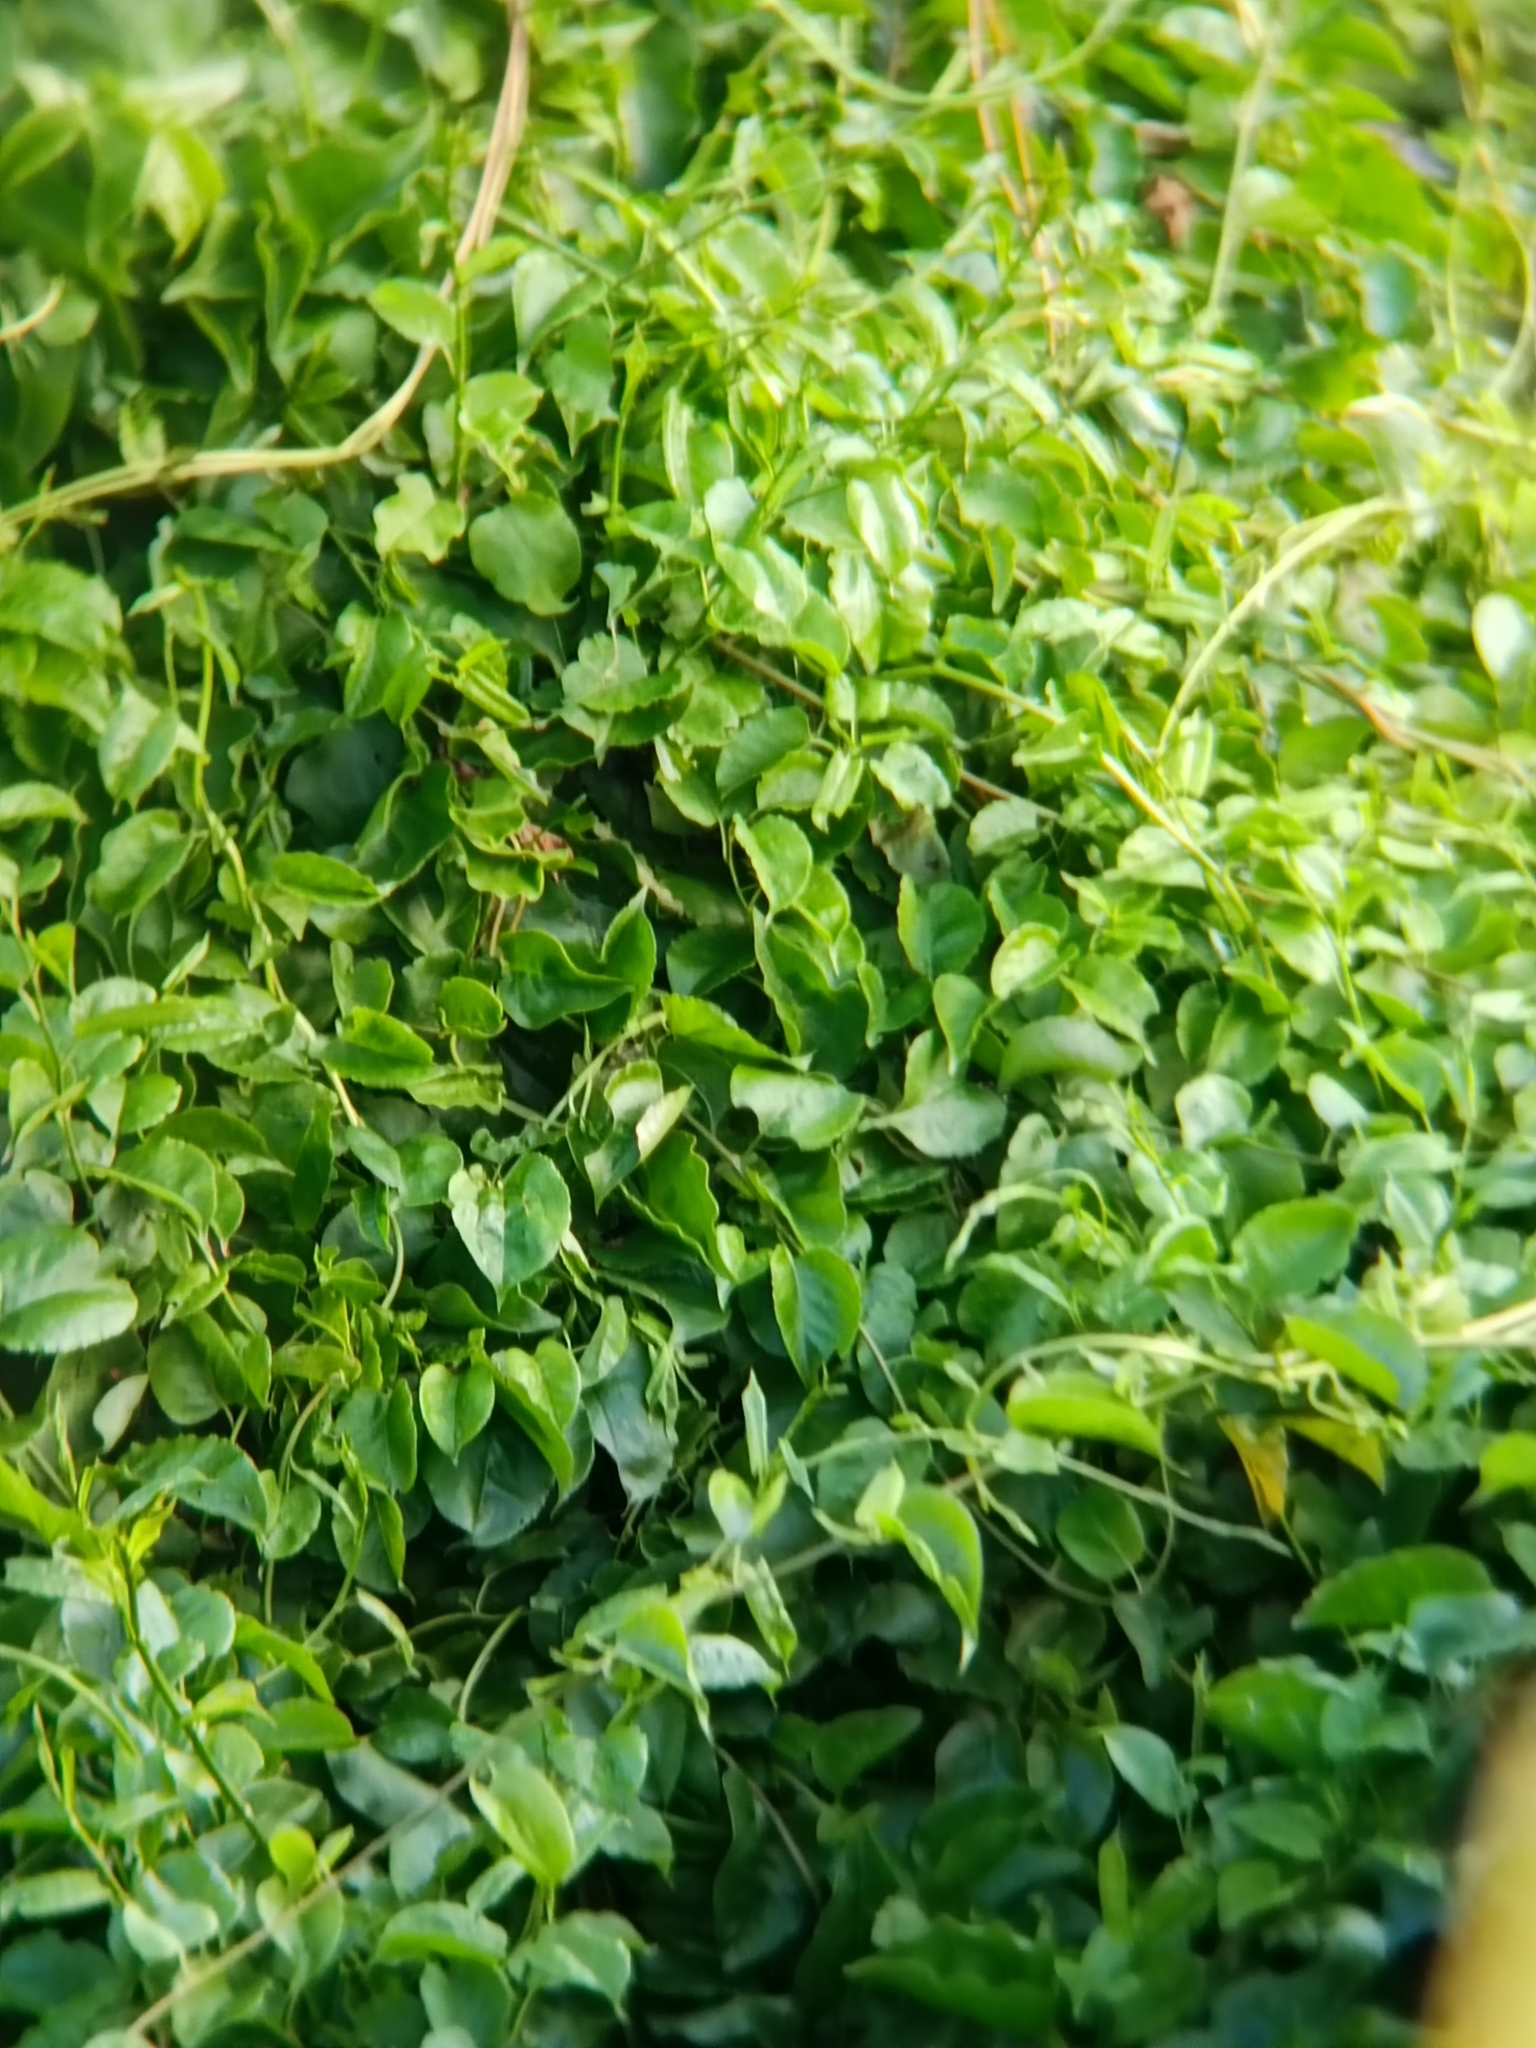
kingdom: Plantae
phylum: Tracheophyta
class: Magnoliopsida
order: Caryophyllales
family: Basellaceae
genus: Anredera
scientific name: Anredera cordifolia
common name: Heartleaf madeiravine
